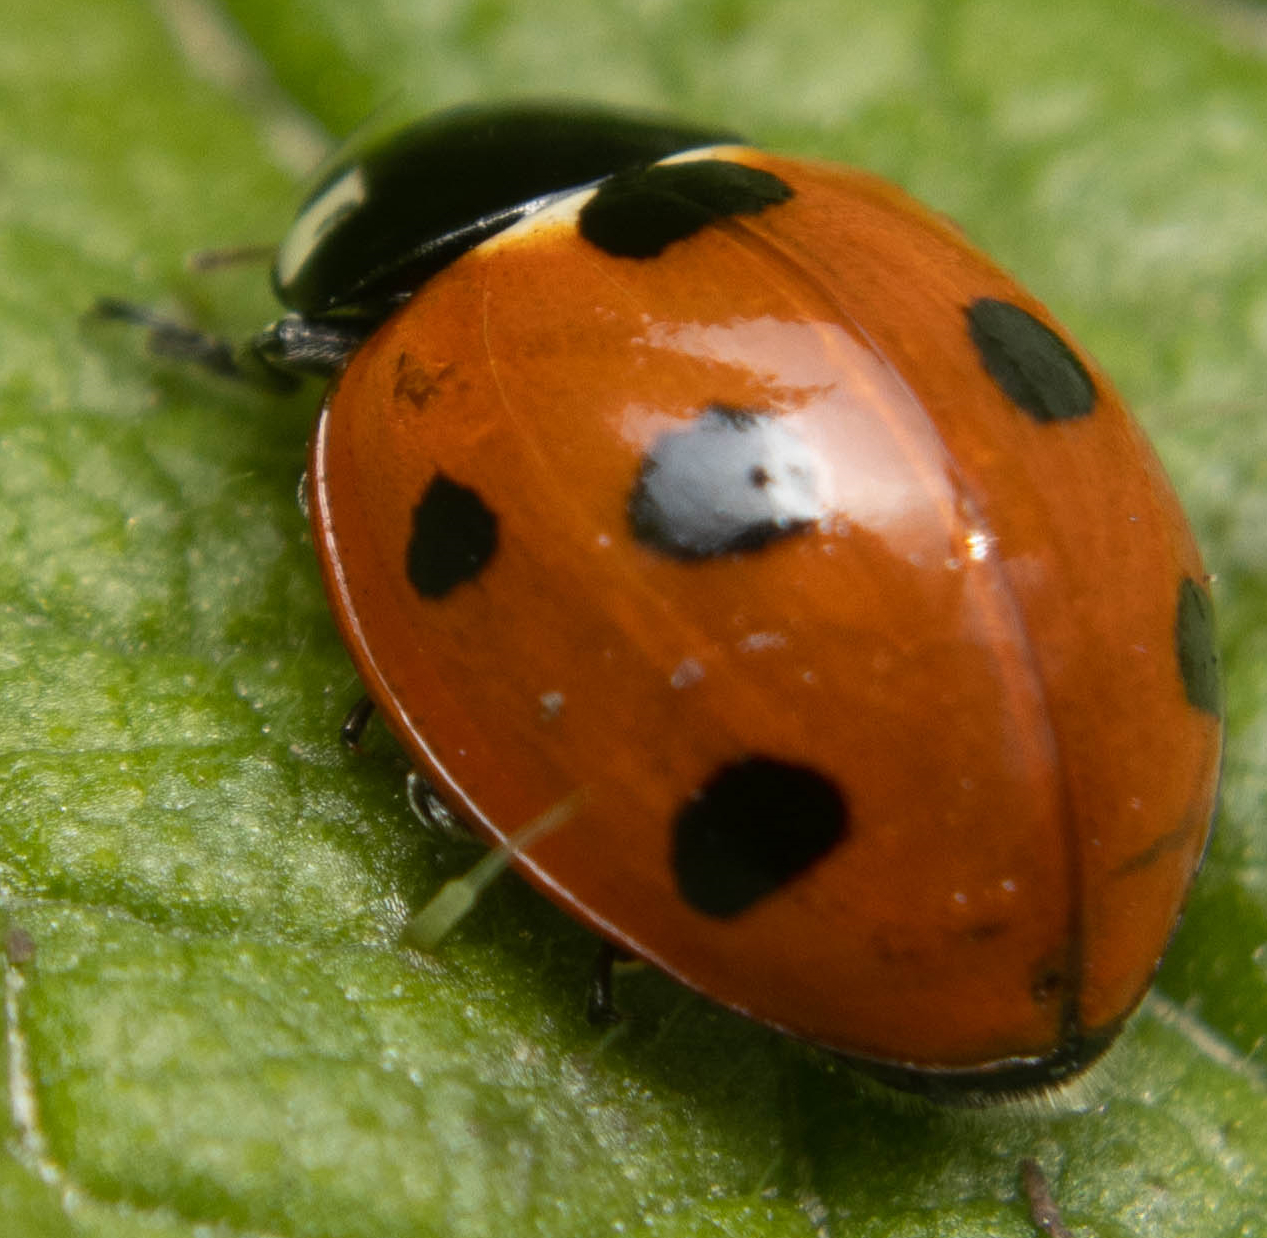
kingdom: Animalia
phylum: Arthropoda
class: Insecta
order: Coleoptera
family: Coccinellidae
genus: Coccinella
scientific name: Coccinella septempunctata
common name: Sevenspotted lady beetle
